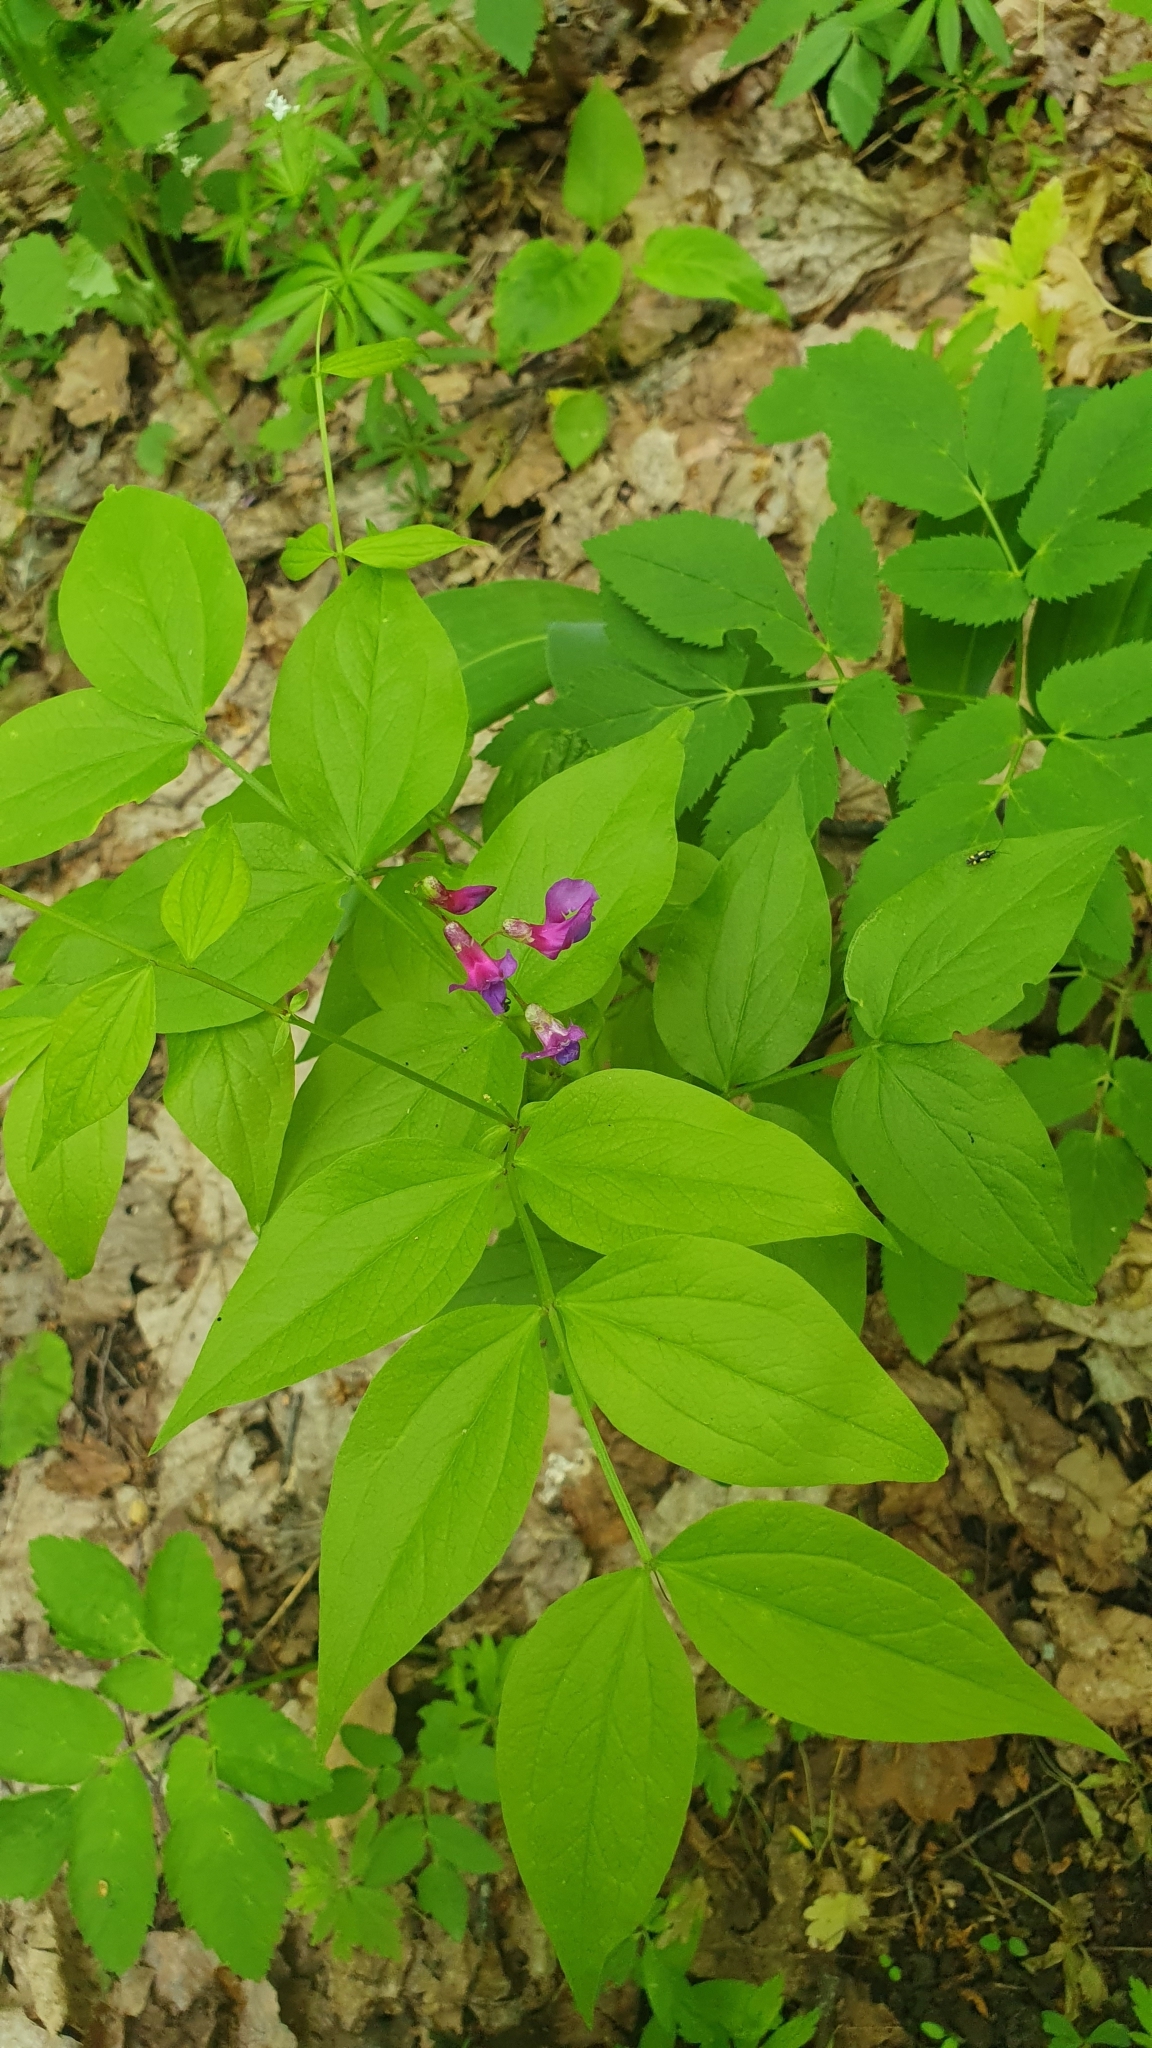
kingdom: Plantae
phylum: Tracheophyta
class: Magnoliopsida
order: Fabales
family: Fabaceae
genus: Lathyrus
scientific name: Lathyrus vernus
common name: Spring pea
